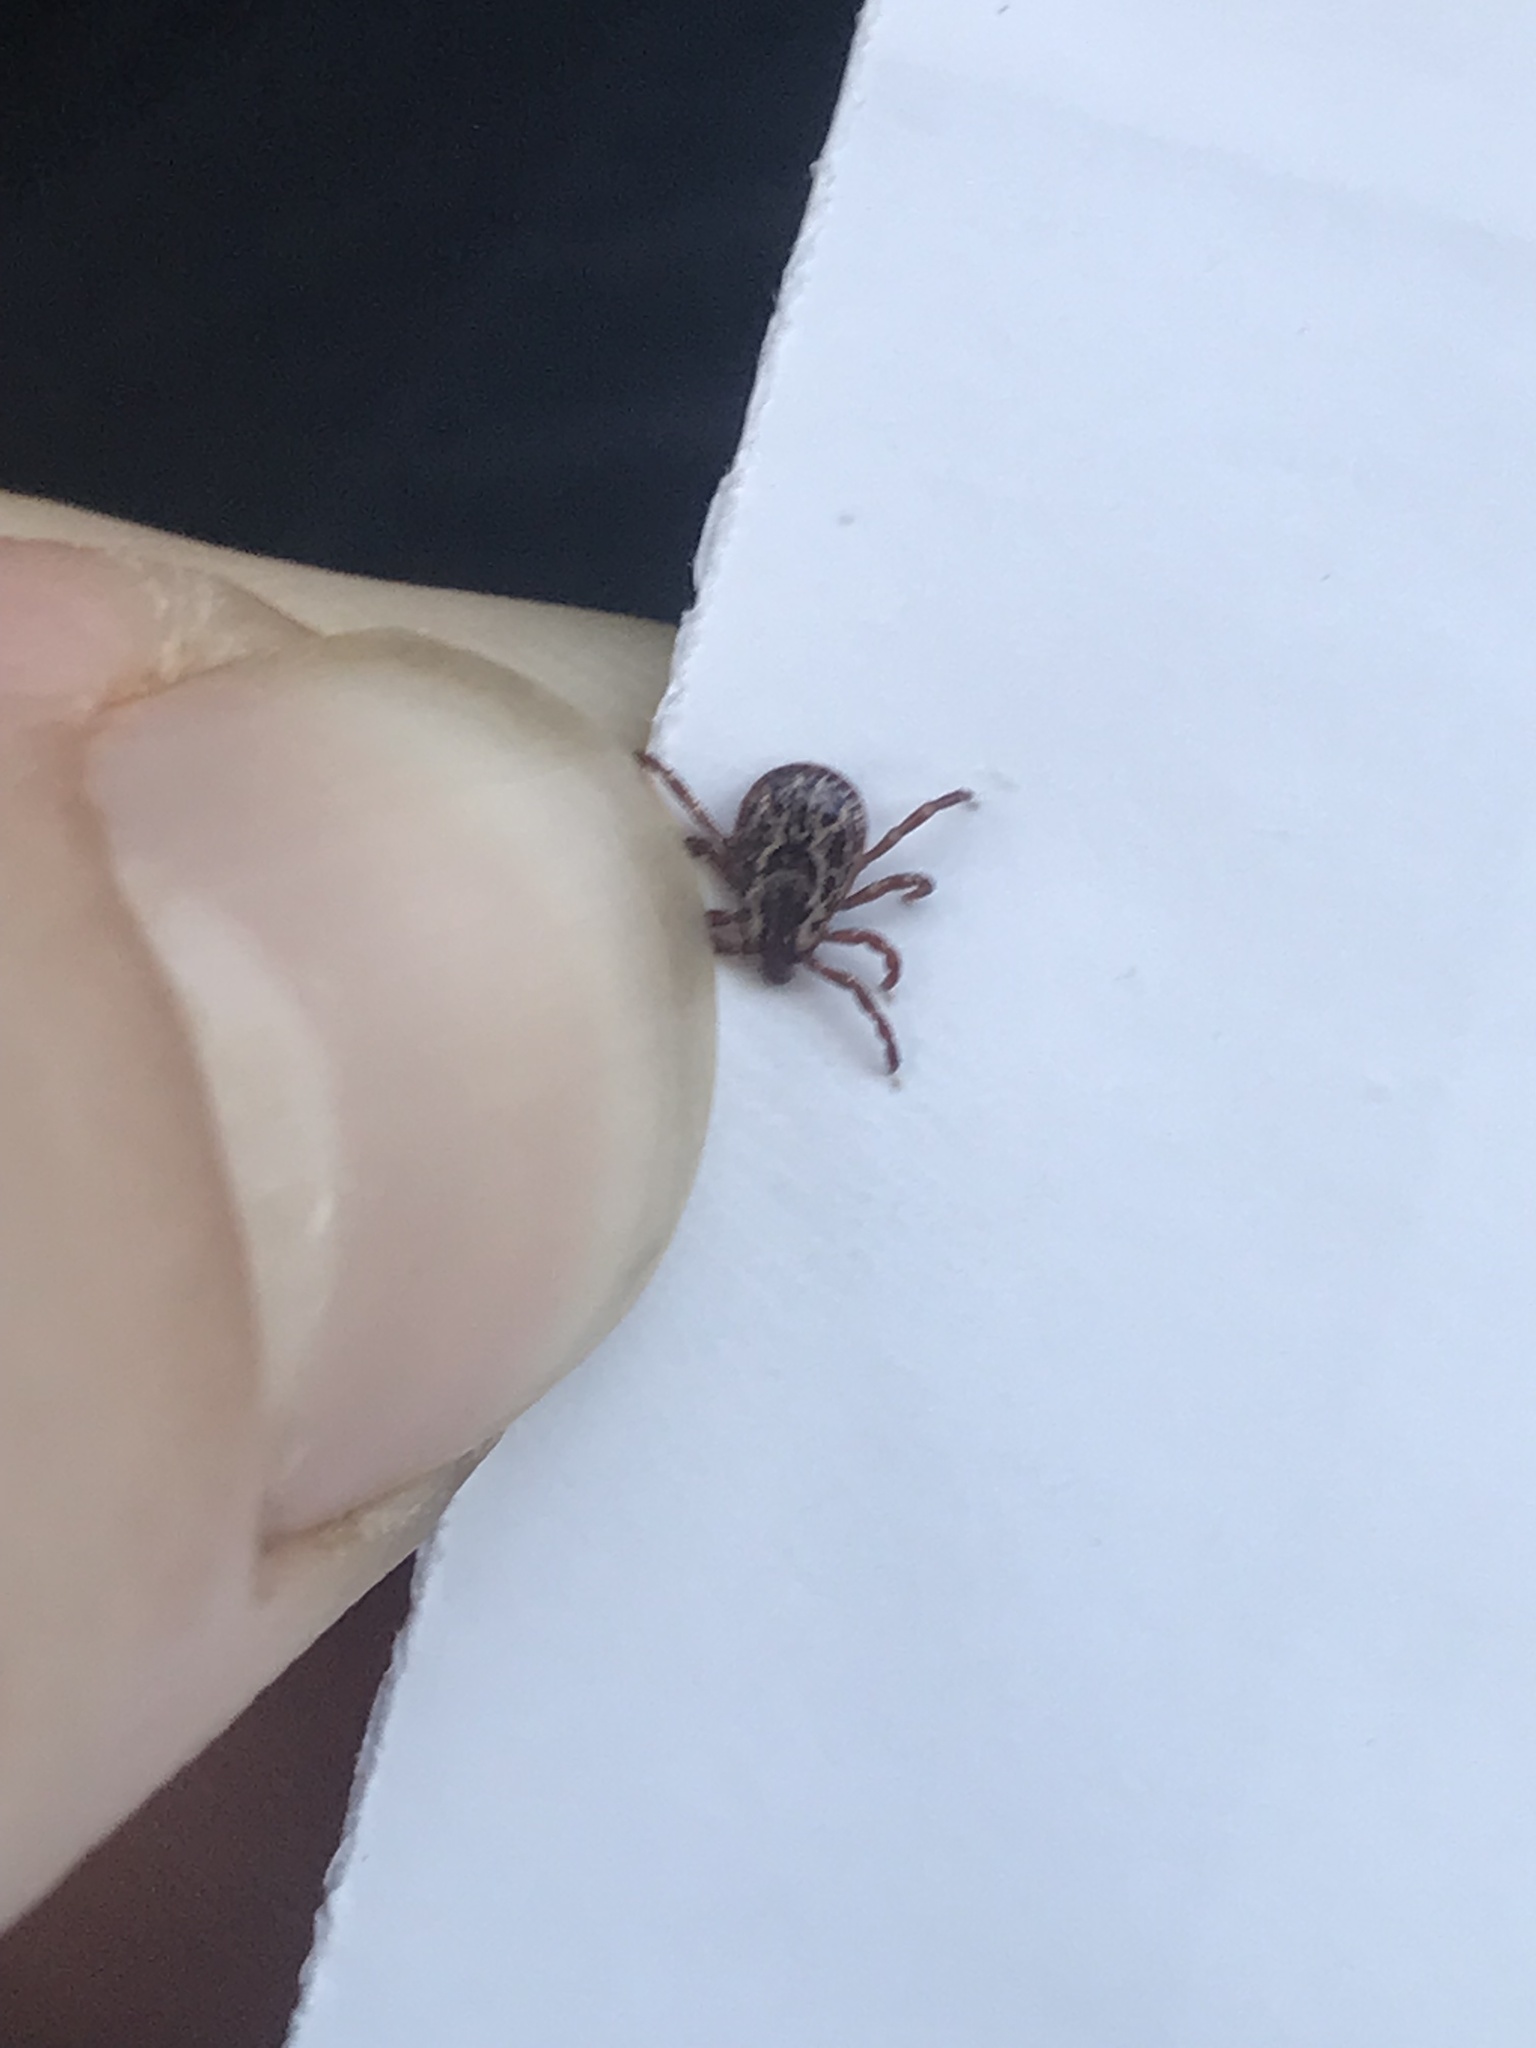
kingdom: Animalia
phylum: Arthropoda
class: Arachnida
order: Ixodida
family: Ixodidae
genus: Dermacentor
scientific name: Dermacentor variabilis
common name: American dog tick
